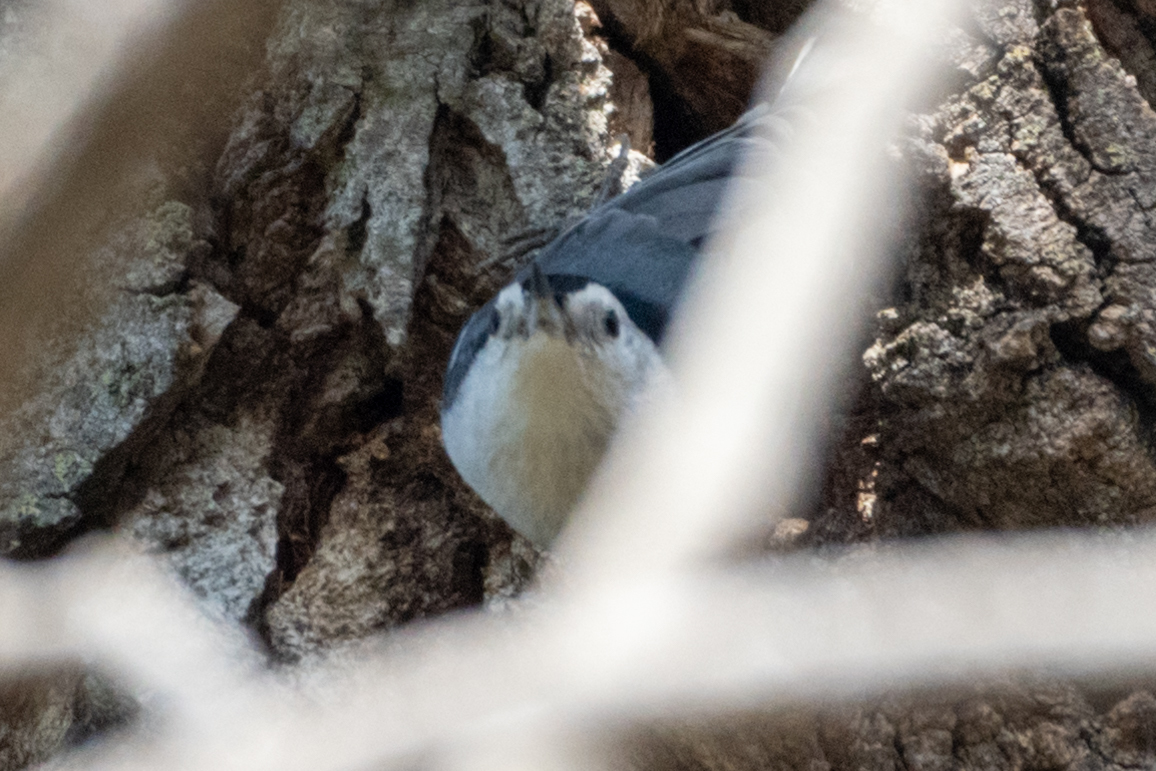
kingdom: Animalia
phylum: Chordata
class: Aves
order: Passeriformes
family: Sittidae
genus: Sitta
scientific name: Sitta carolinensis
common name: White-breasted nuthatch
